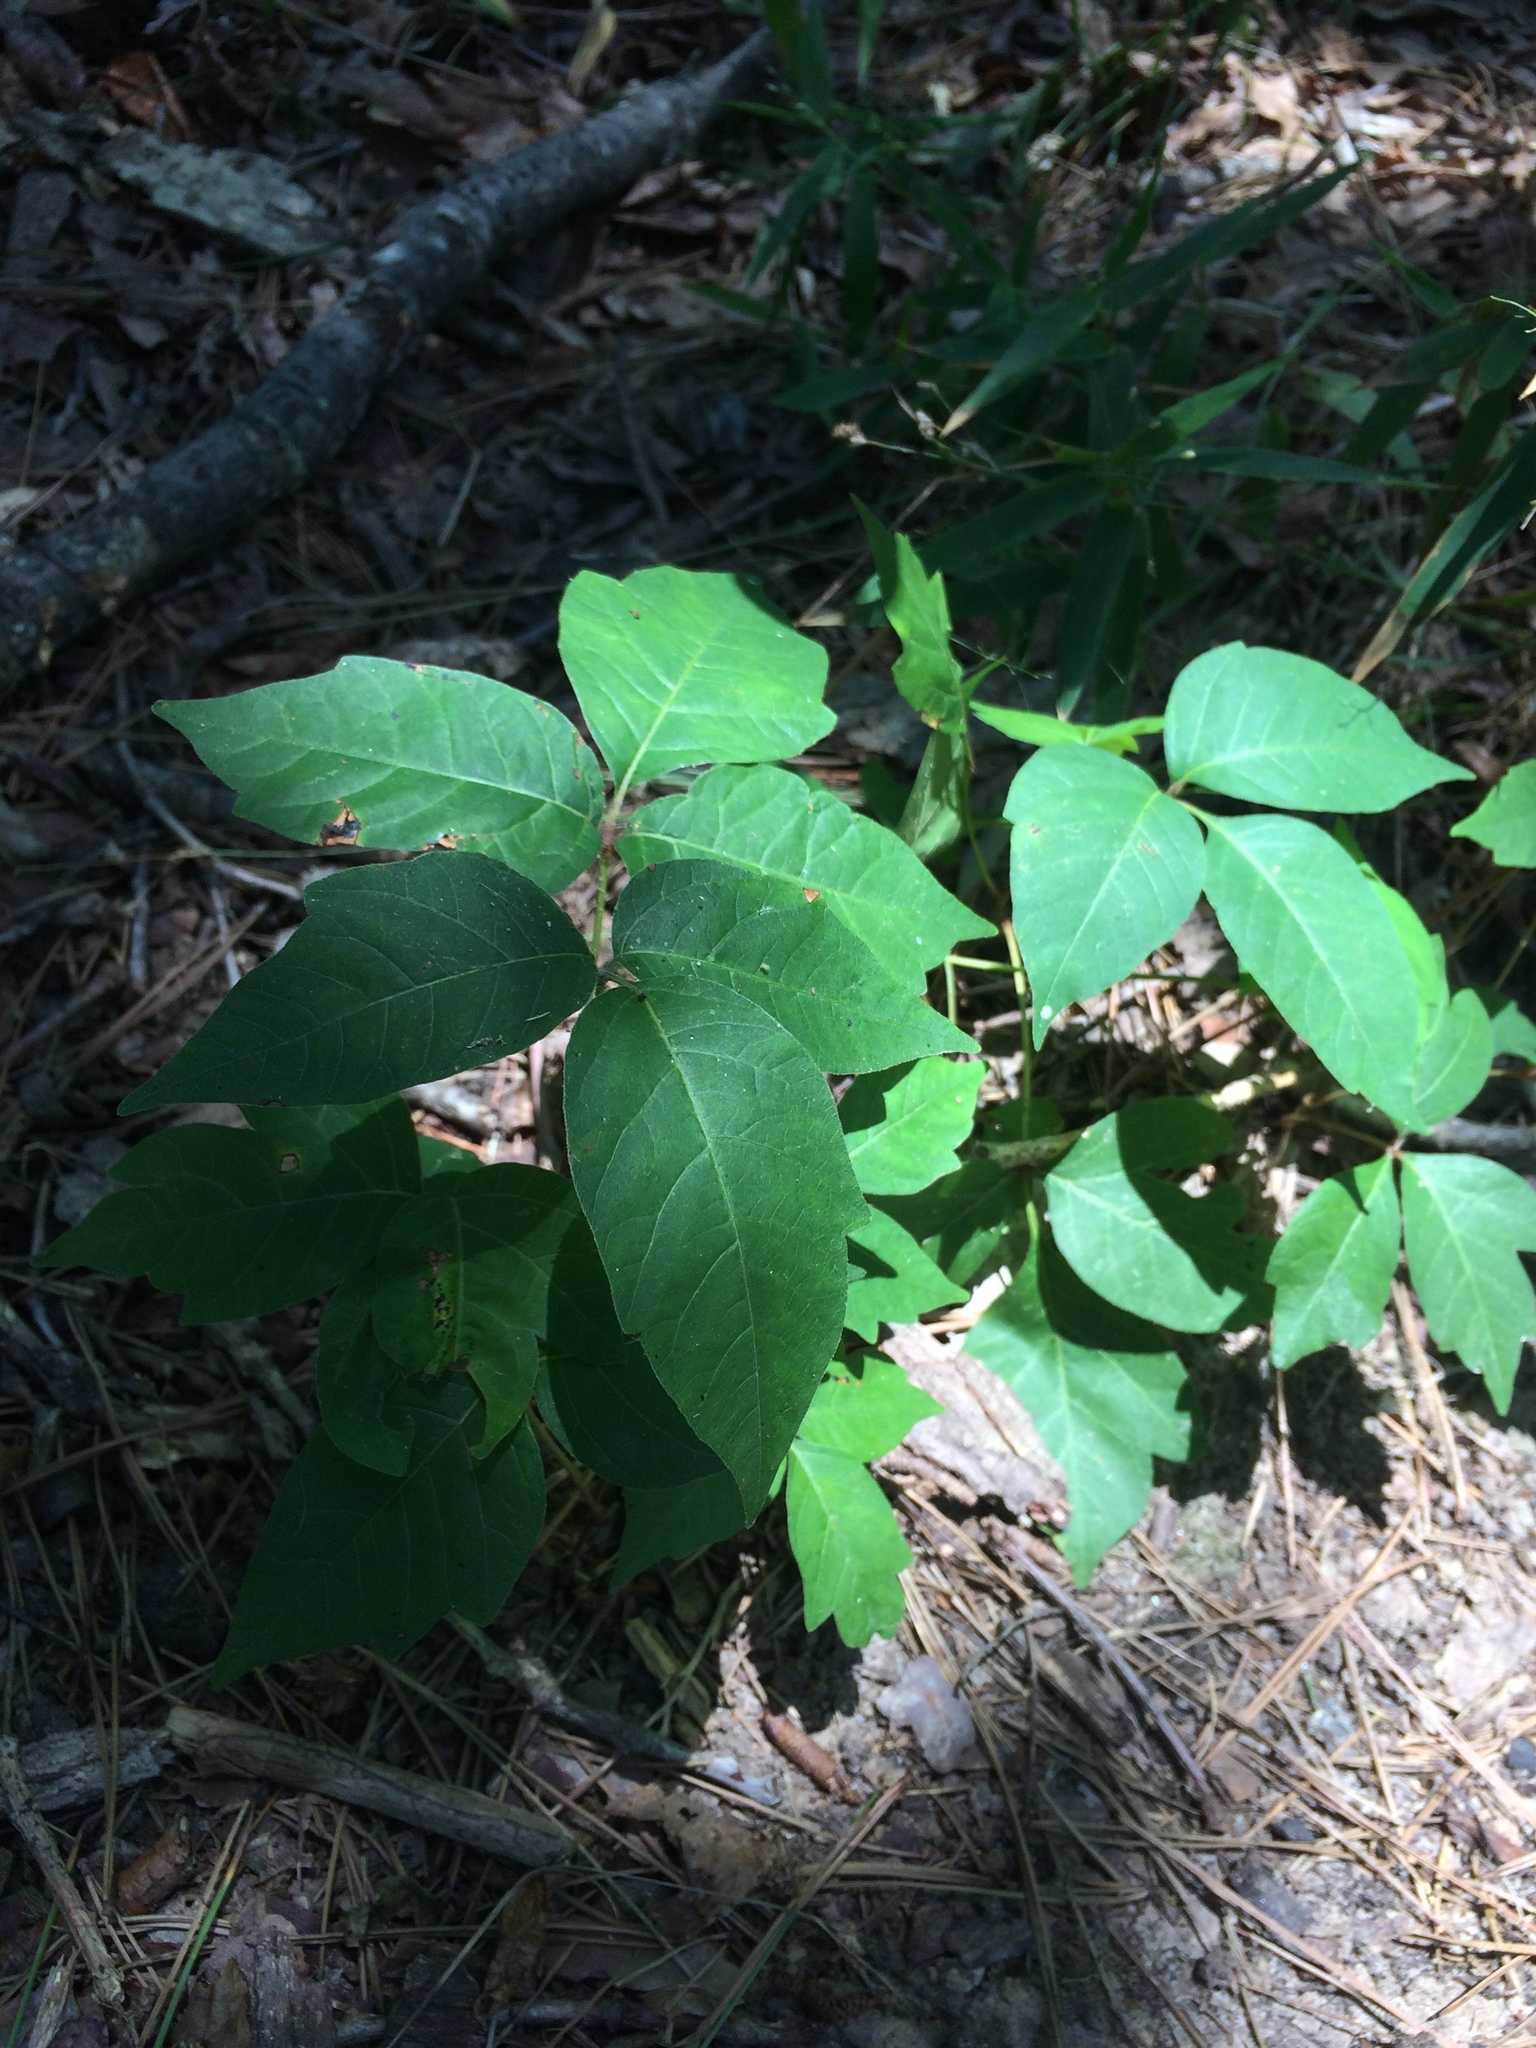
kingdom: Plantae
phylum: Tracheophyta
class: Magnoliopsida
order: Sapindales
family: Anacardiaceae
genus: Toxicodendron
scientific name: Toxicodendron radicans
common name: Poison ivy
